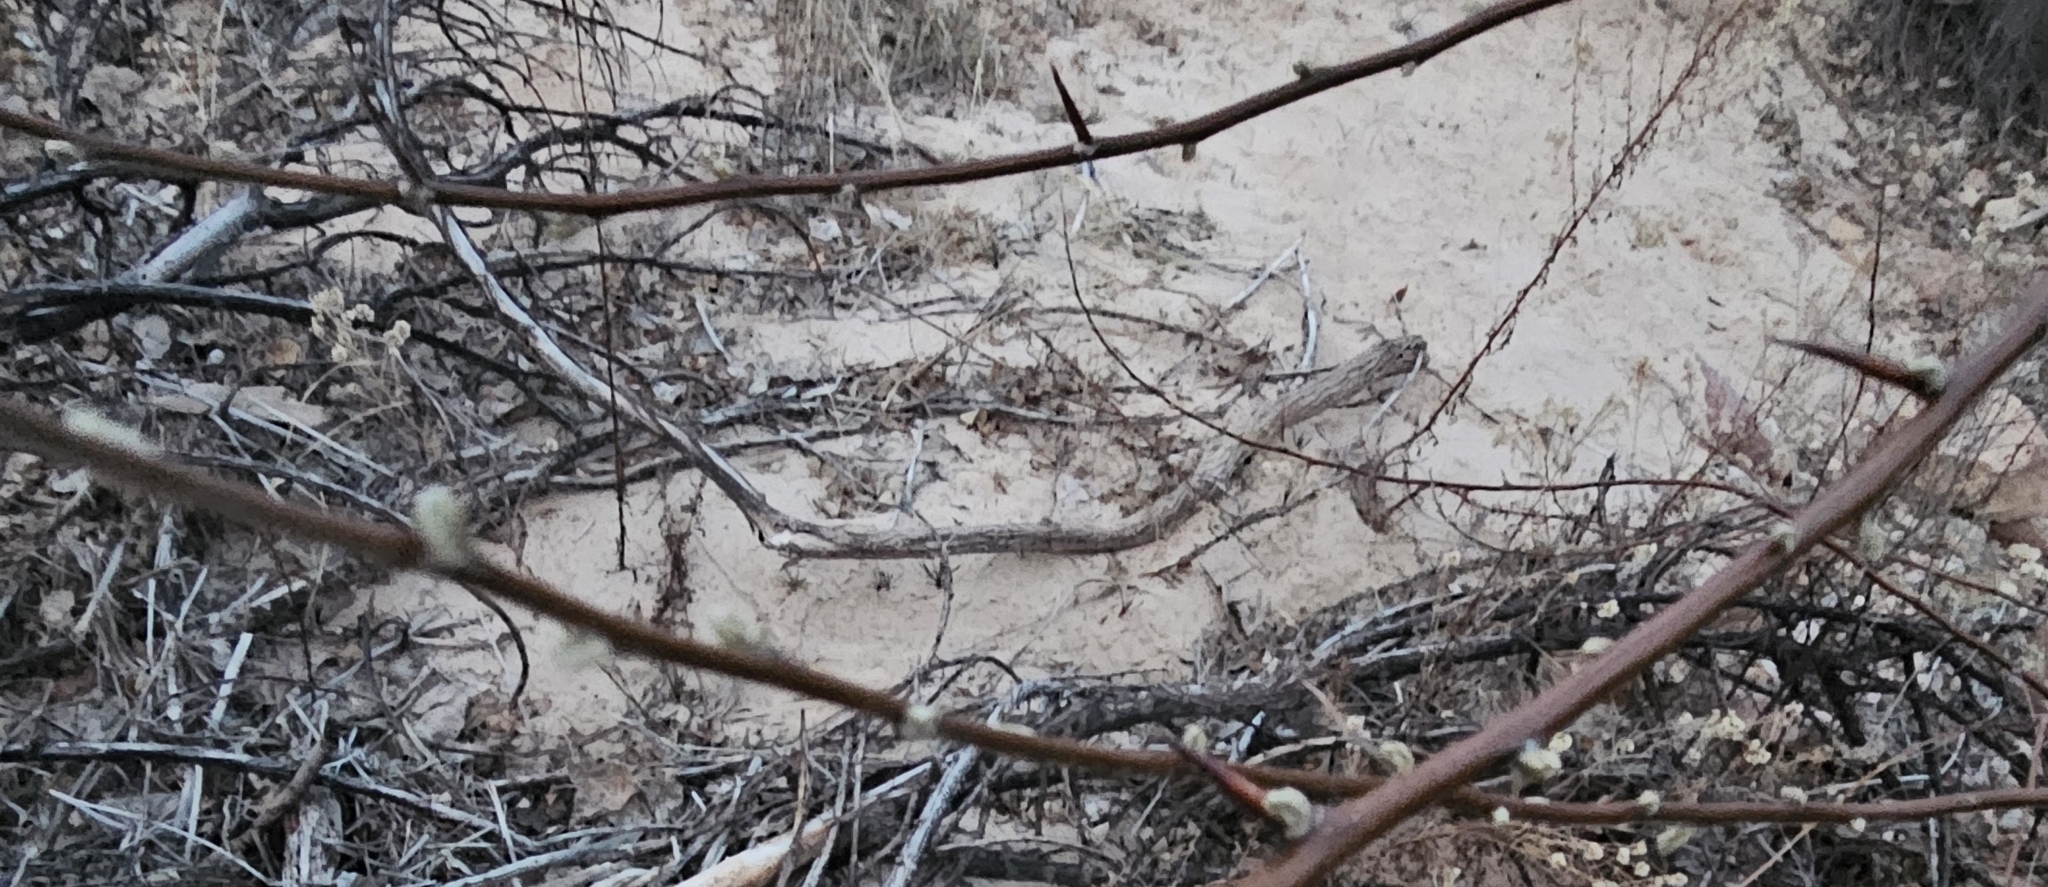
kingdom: Plantae
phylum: Tracheophyta
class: Magnoliopsida
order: Malpighiales
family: Salicaceae
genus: Salix
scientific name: Salix exigua
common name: Coyote willow
